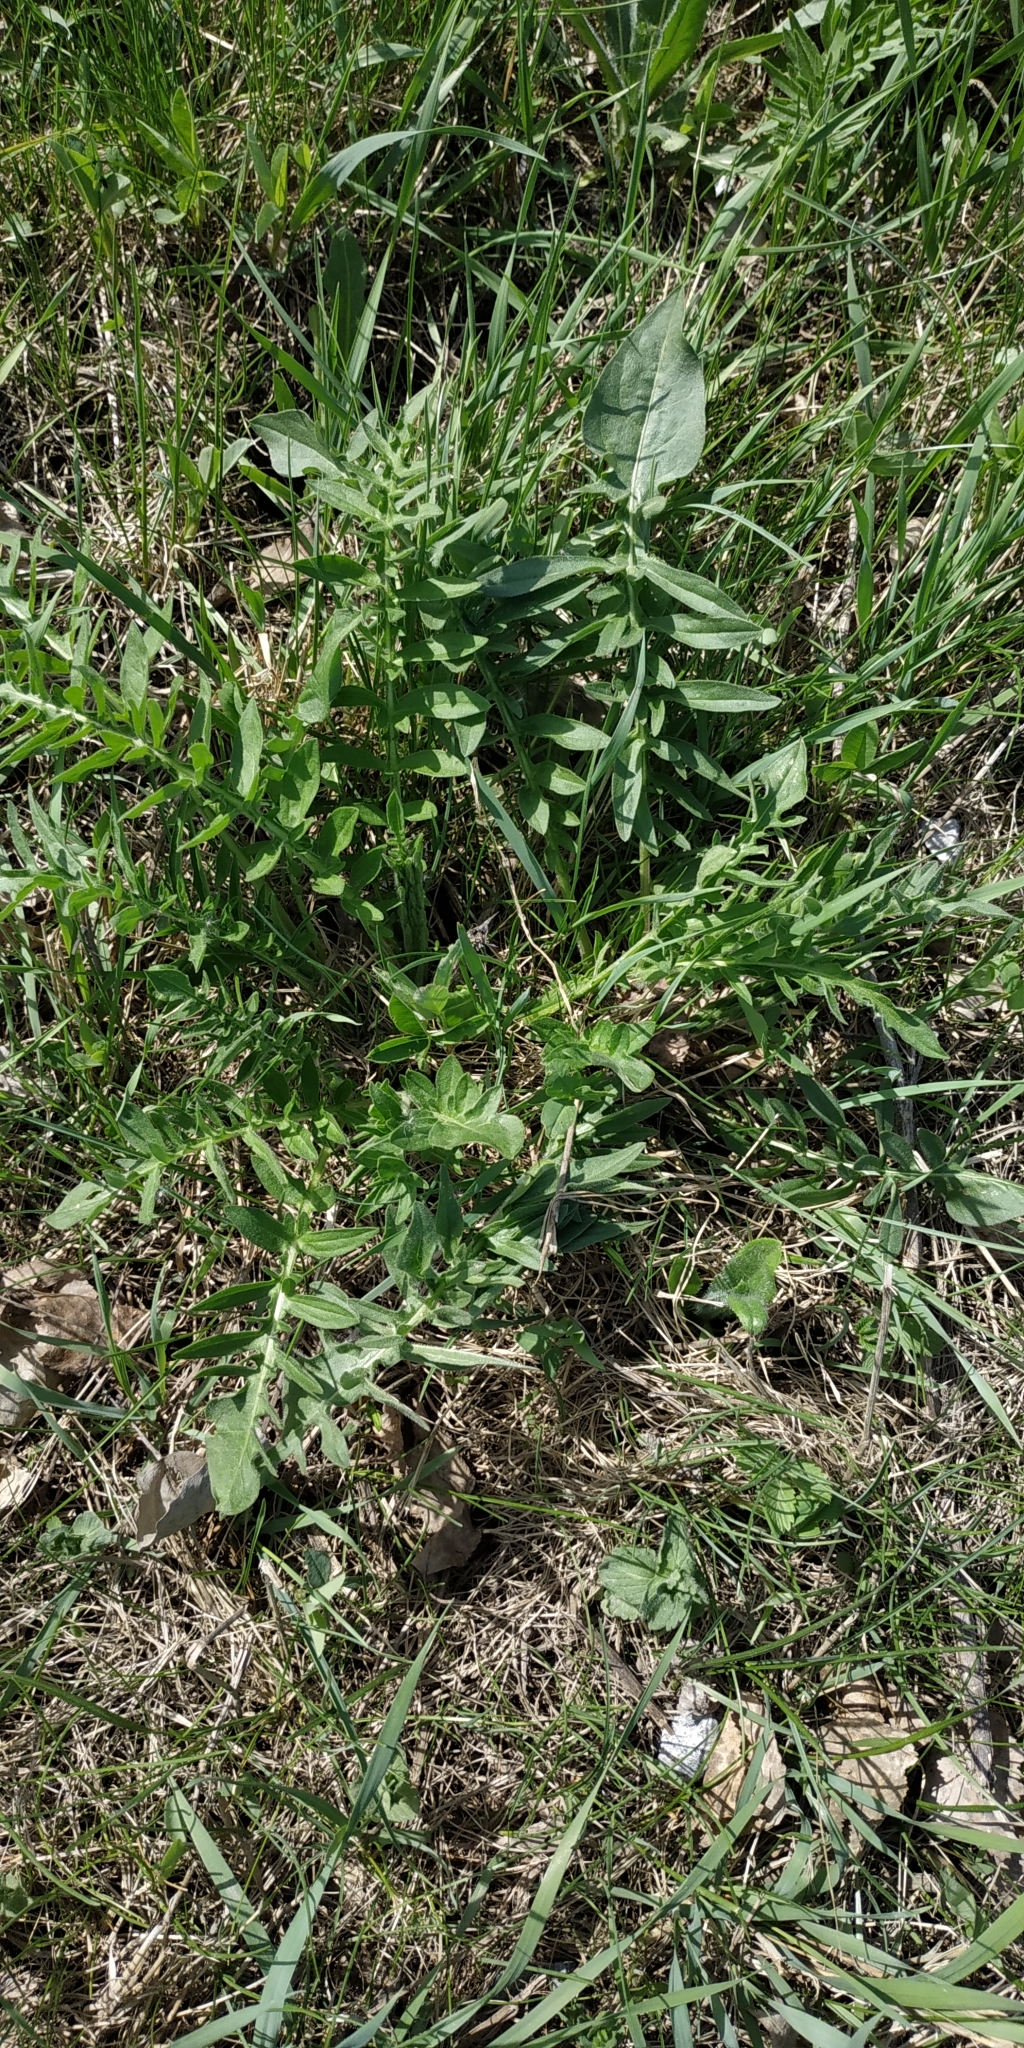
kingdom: Plantae
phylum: Tracheophyta
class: Magnoliopsida
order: Asterales
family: Asteraceae
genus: Centaurea
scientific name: Centaurea scabiosa
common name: Greater knapweed
